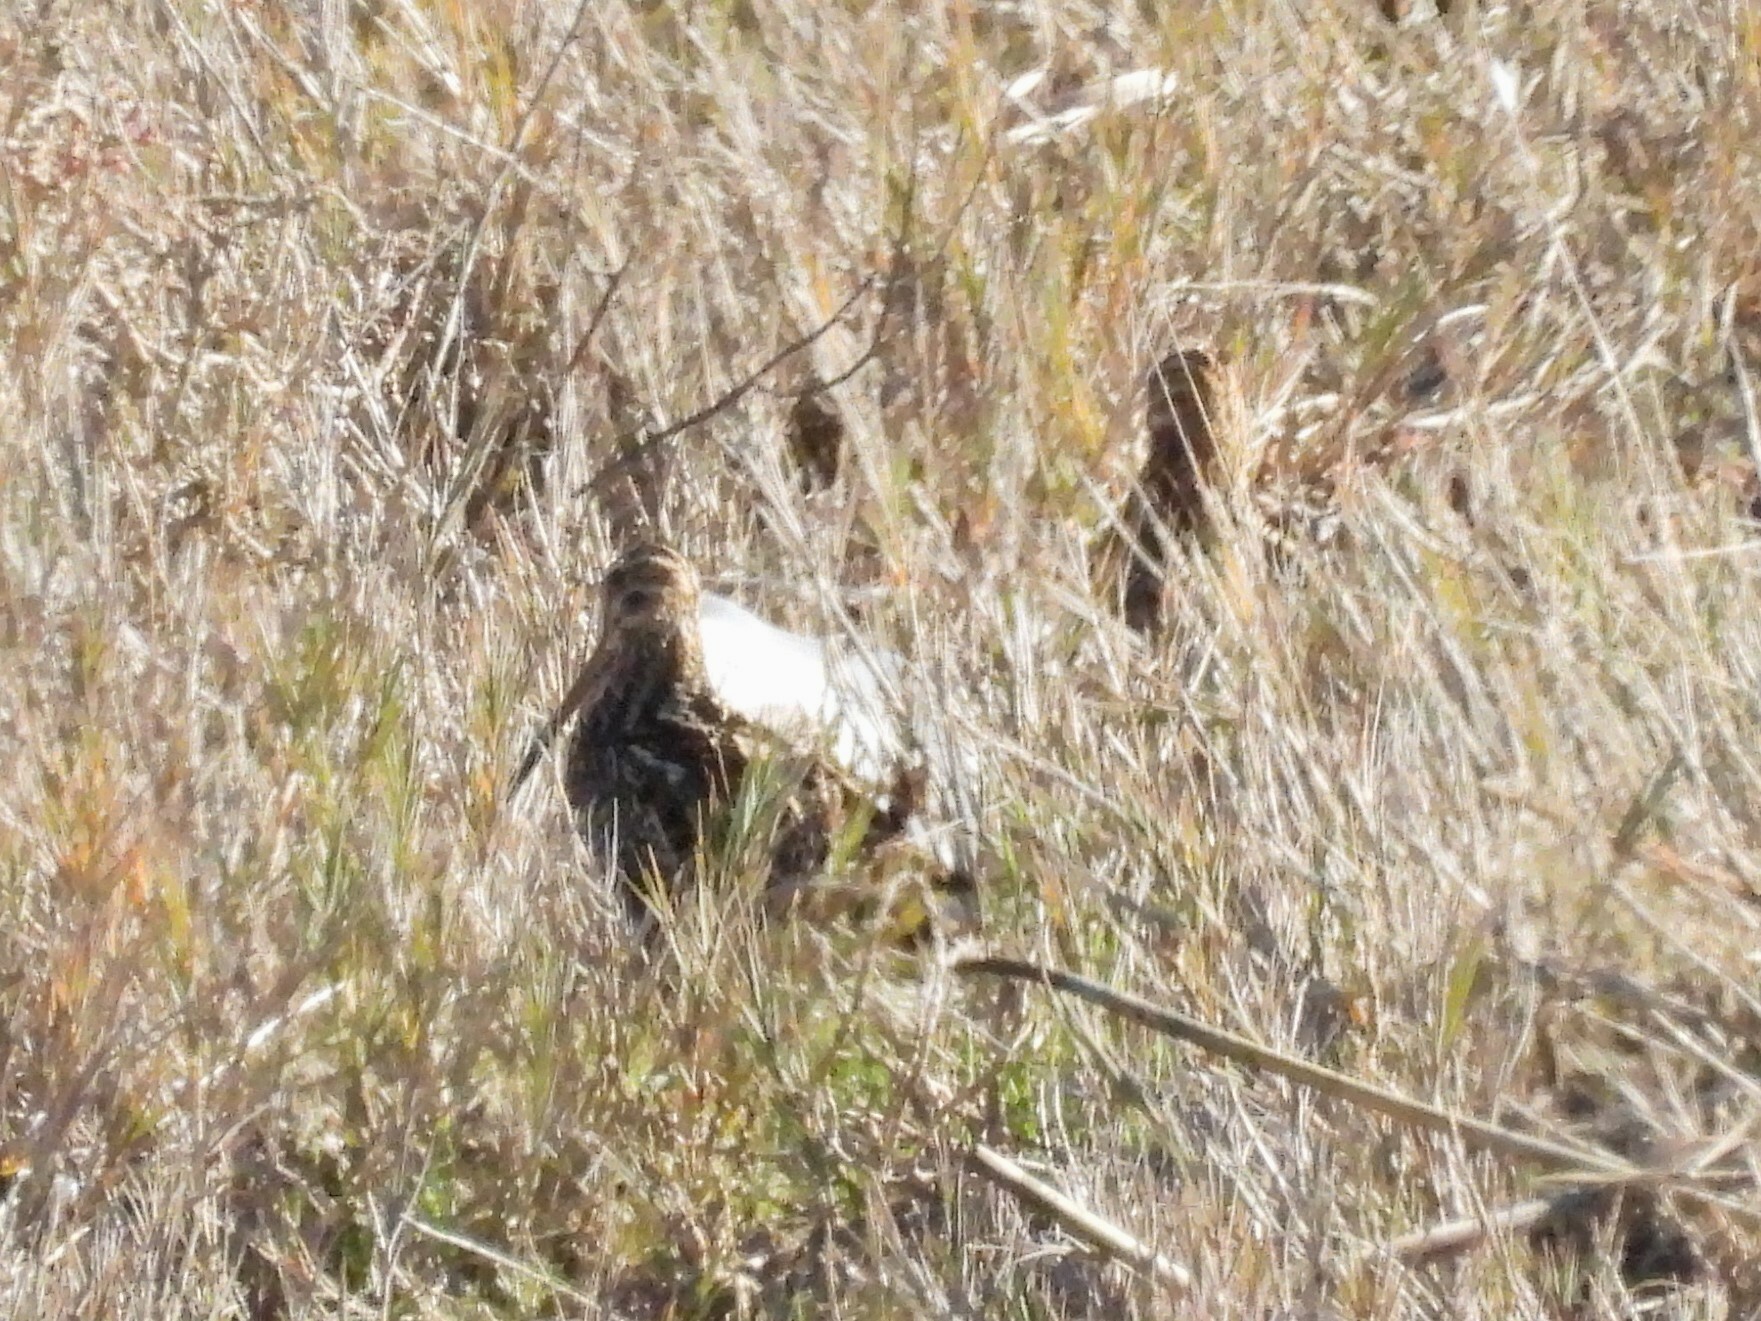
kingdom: Animalia
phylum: Chordata
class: Aves
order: Charadriiformes
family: Scolopacidae
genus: Gallinago
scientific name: Gallinago delicata
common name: Wilson's snipe
